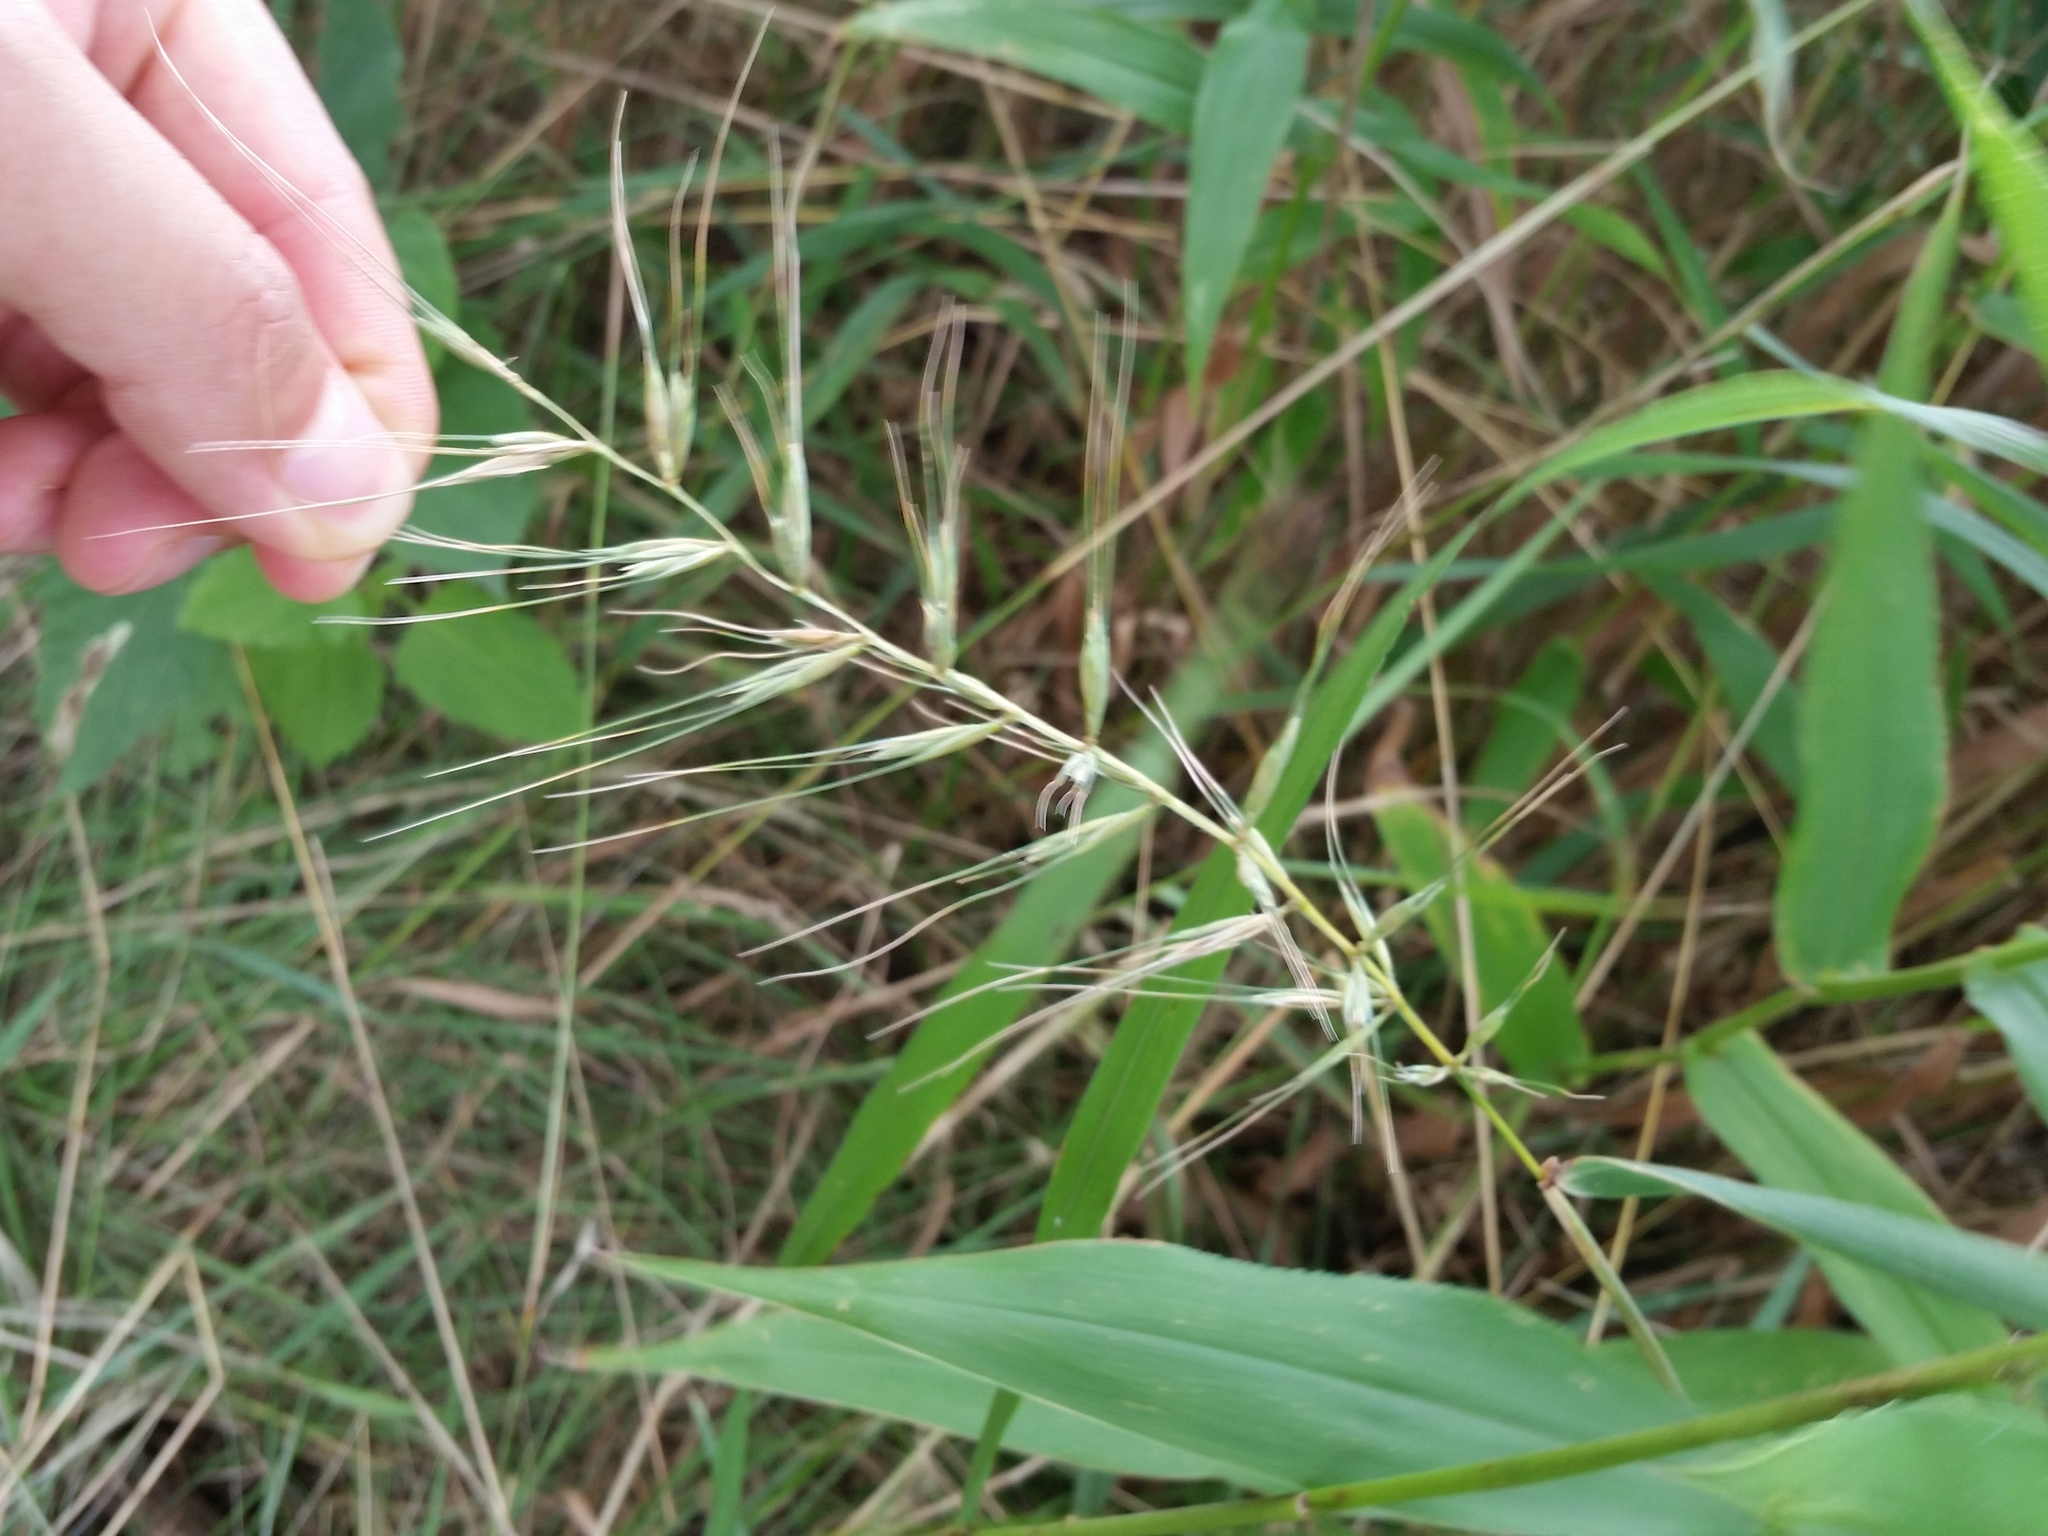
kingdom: Plantae
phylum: Tracheophyta
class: Liliopsida
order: Poales
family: Poaceae
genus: Elymus
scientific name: Elymus hystrix
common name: Bottlebrush grass
